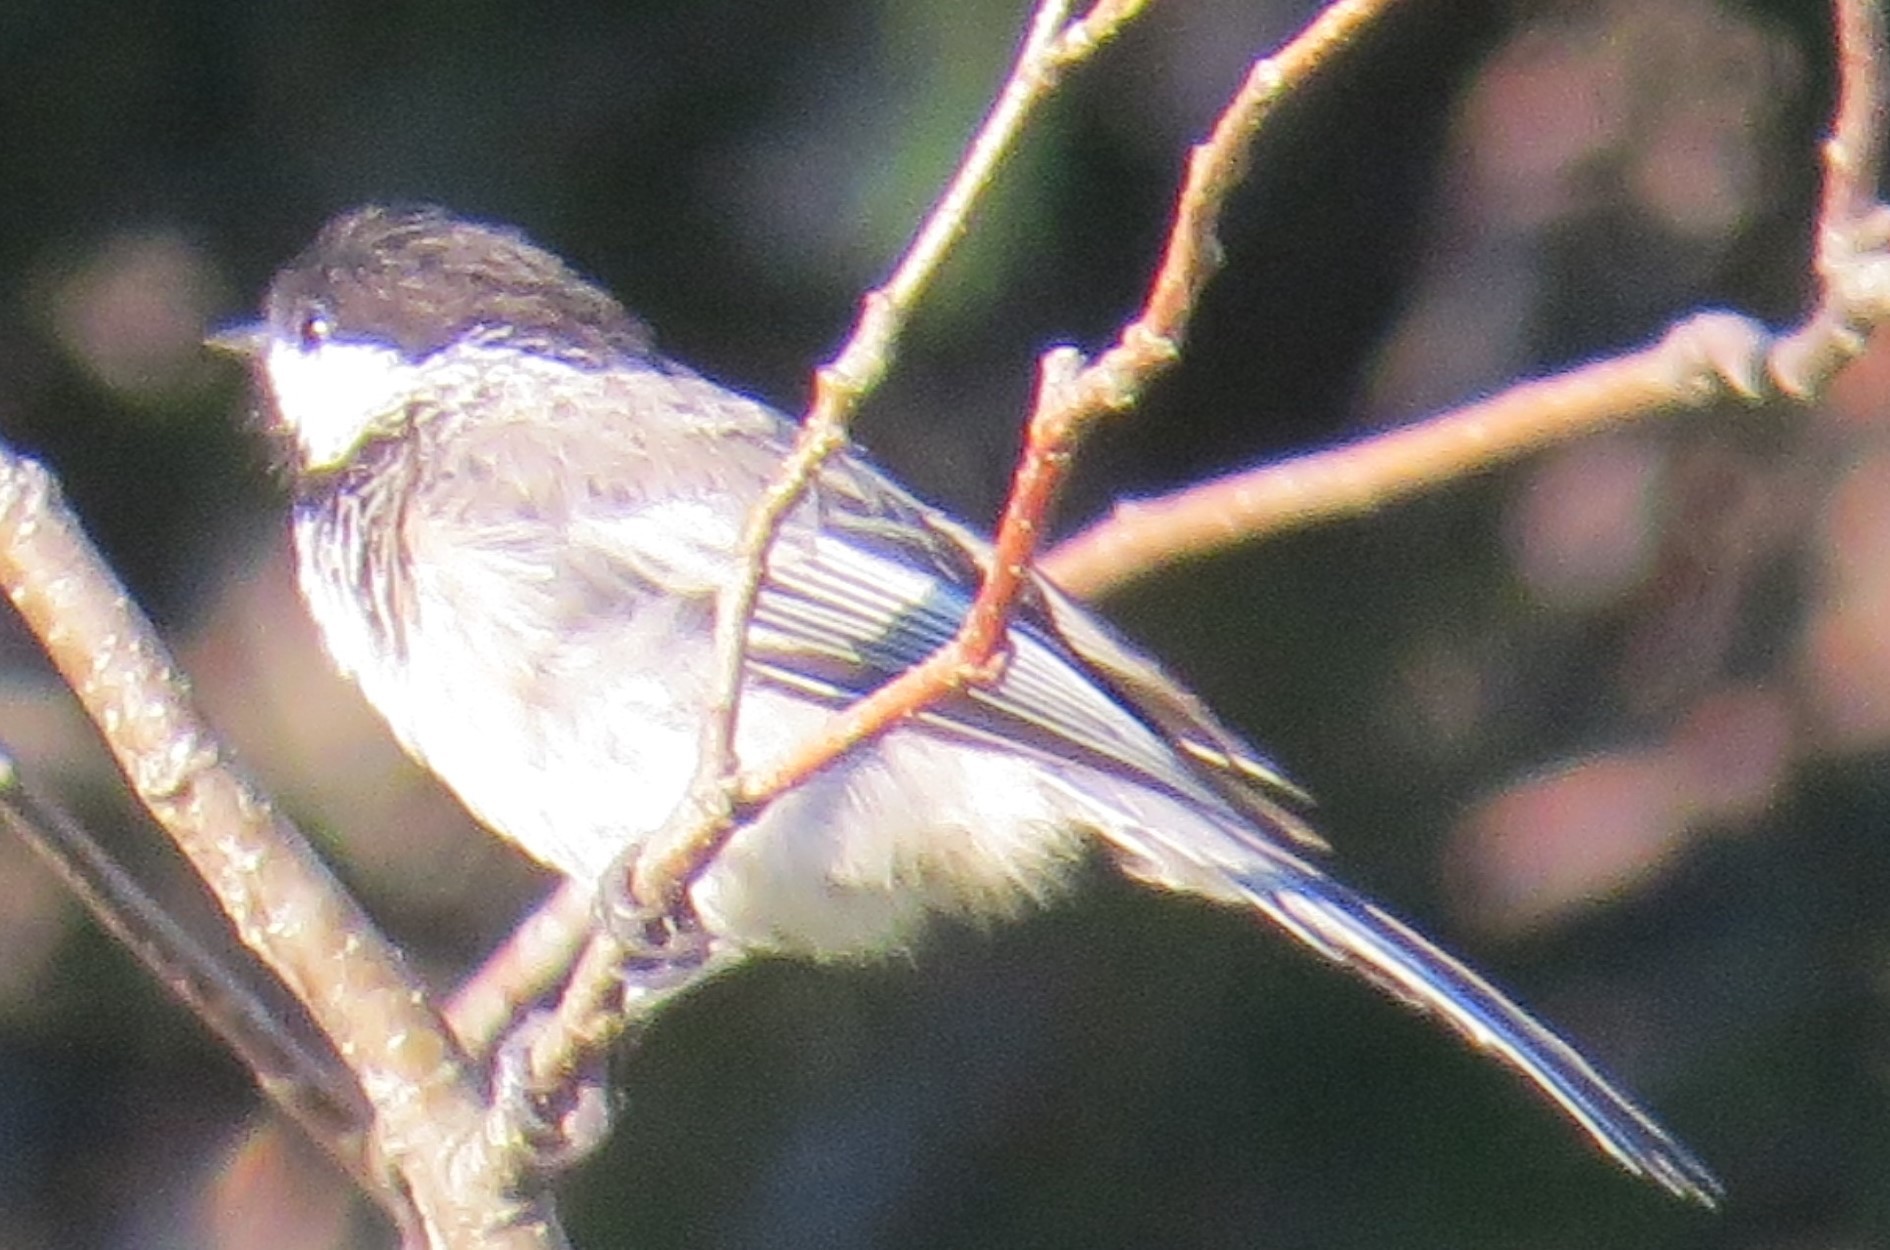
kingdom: Animalia
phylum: Chordata
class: Aves
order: Passeriformes
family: Paridae
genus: Poecile
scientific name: Poecile atricapillus
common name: Black-capped chickadee
